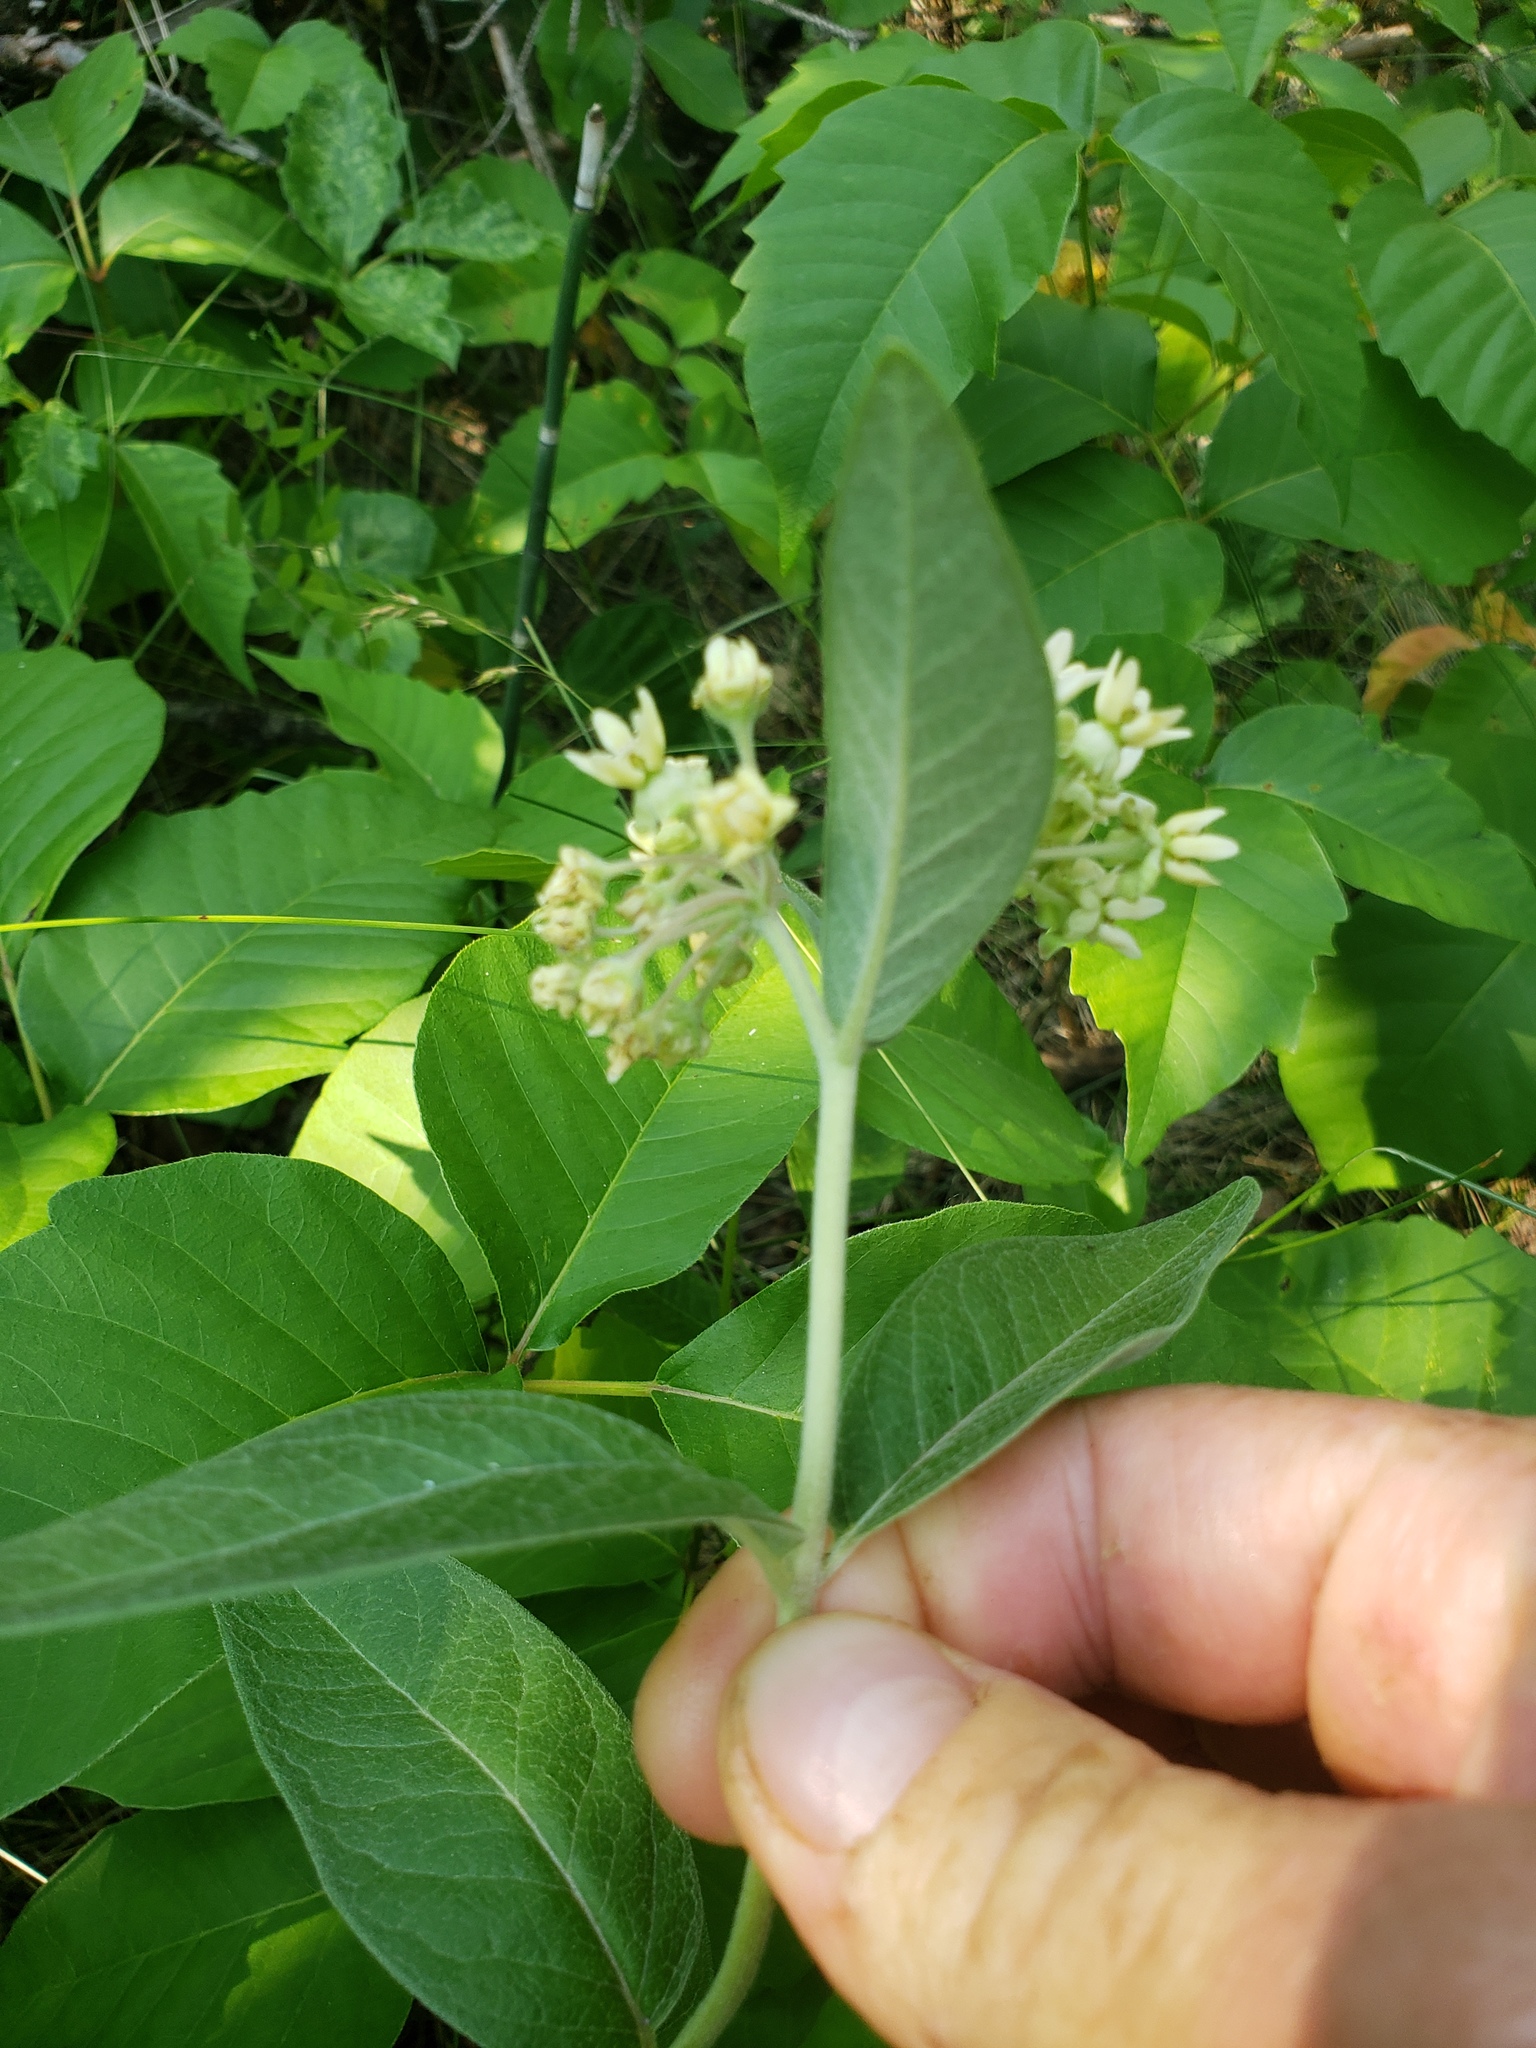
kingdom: Plantae
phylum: Tracheophyta
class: Magnoliopsida
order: Gentianales
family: Apocynaceae
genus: Asclepias
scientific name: Asclepias ovalifolia
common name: Dwarf milkweed
